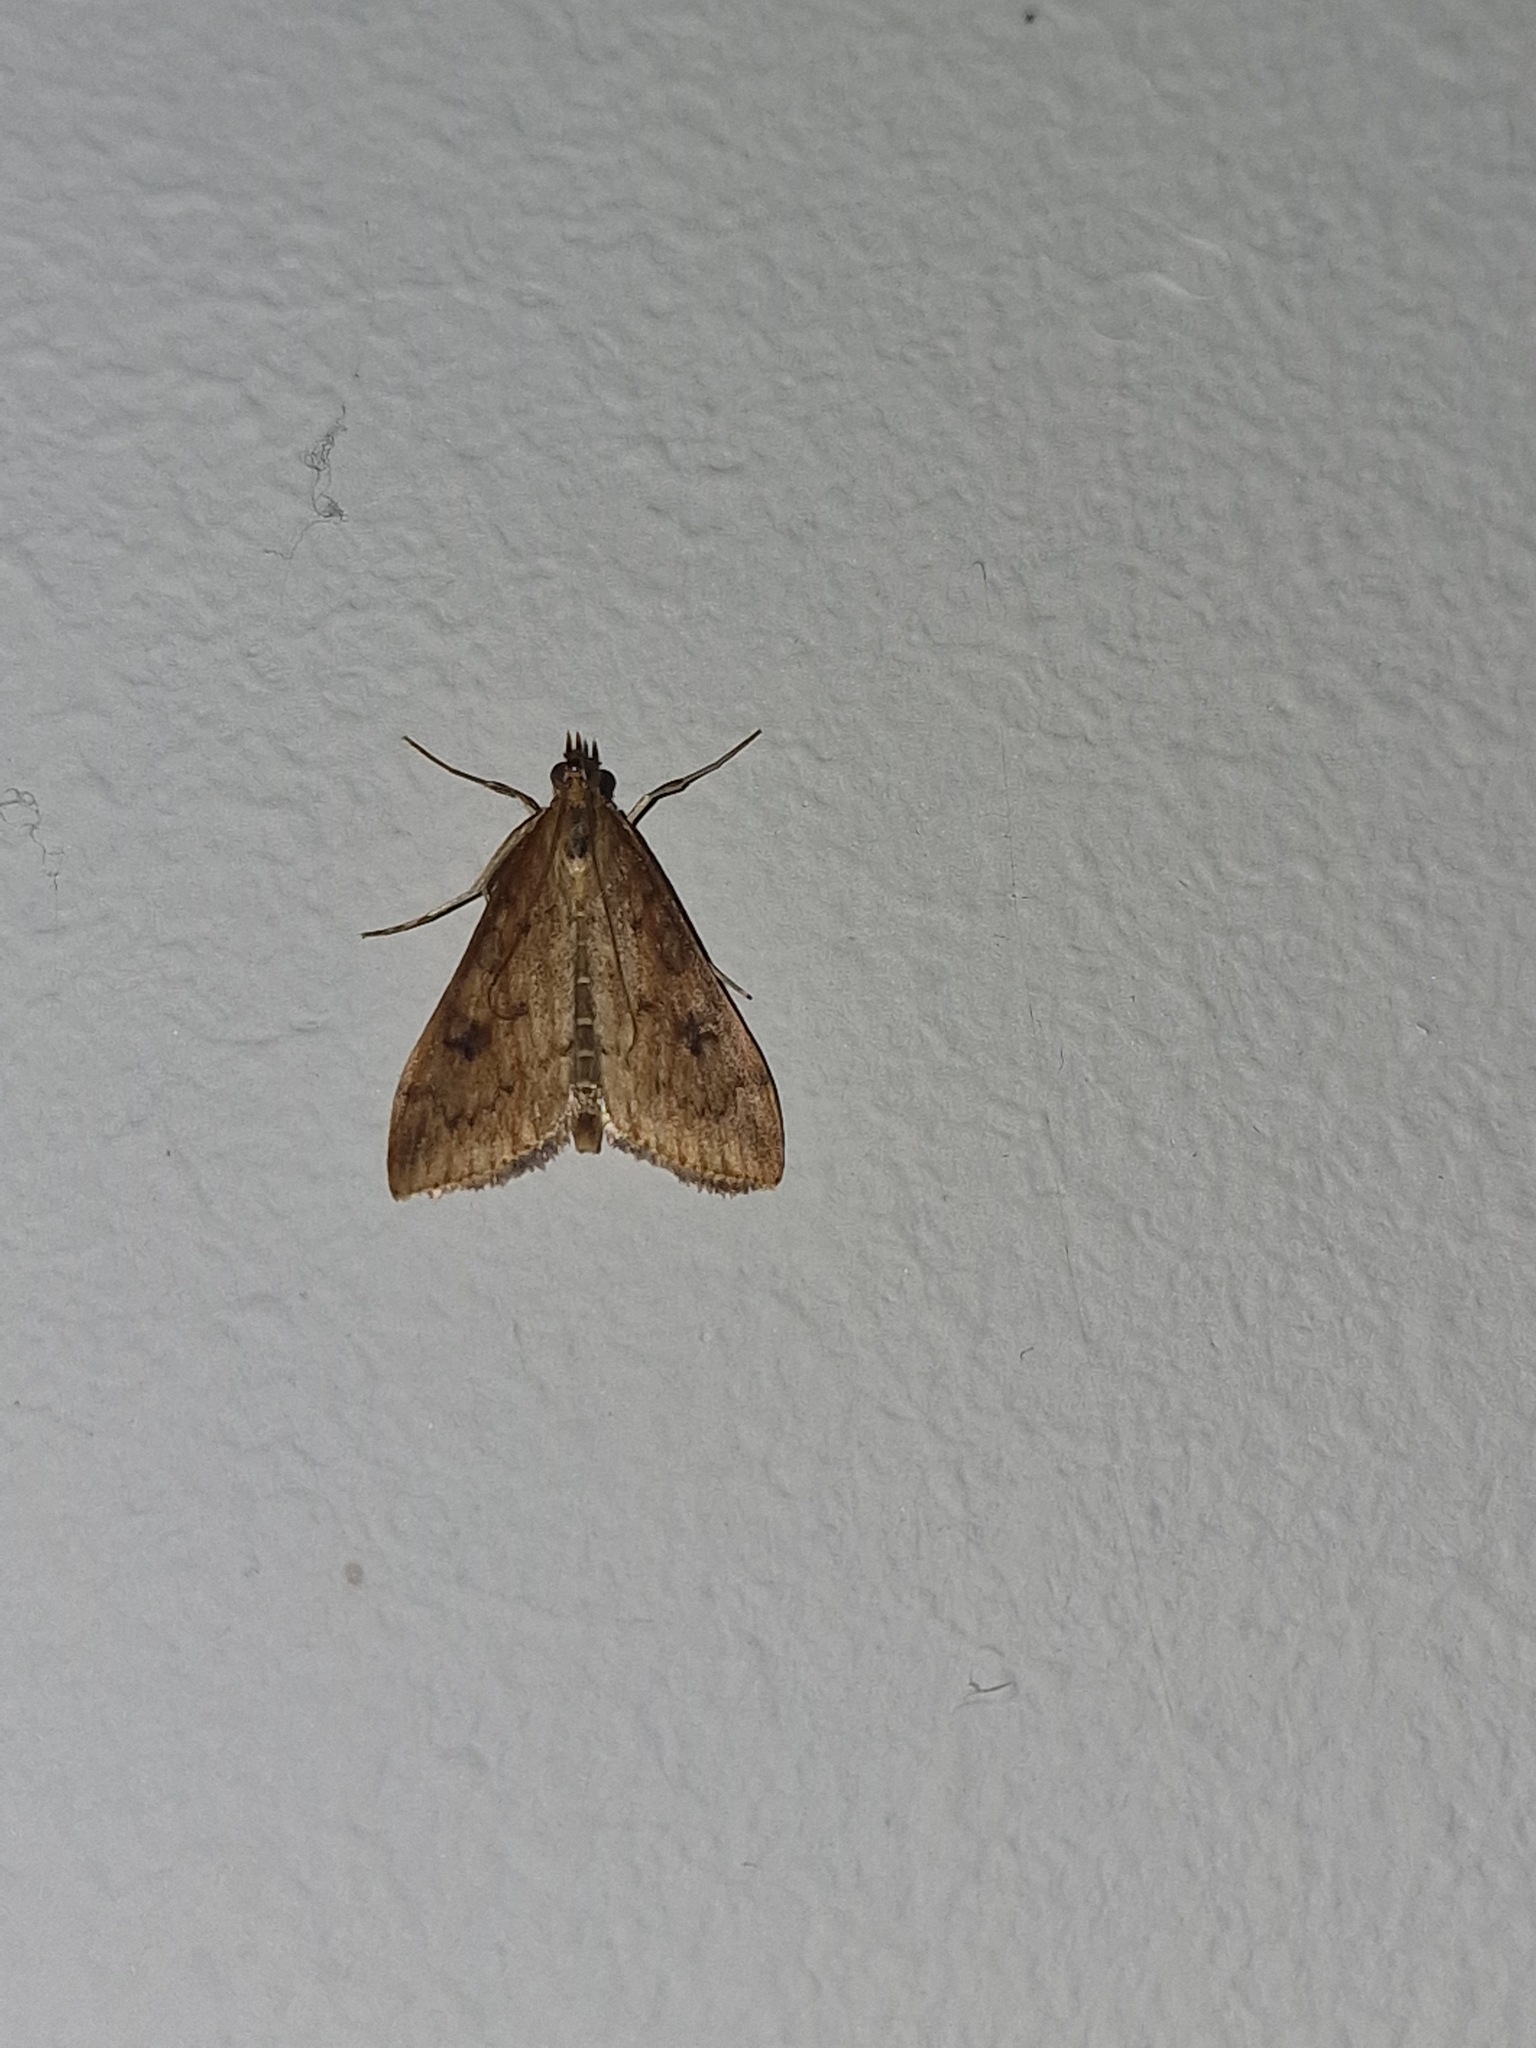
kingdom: Animalia
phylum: Arthropoda
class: Insecta
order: Lepidoptera
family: Crambidae
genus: Udea
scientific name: Udea ferrugalis
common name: Rusty dot
